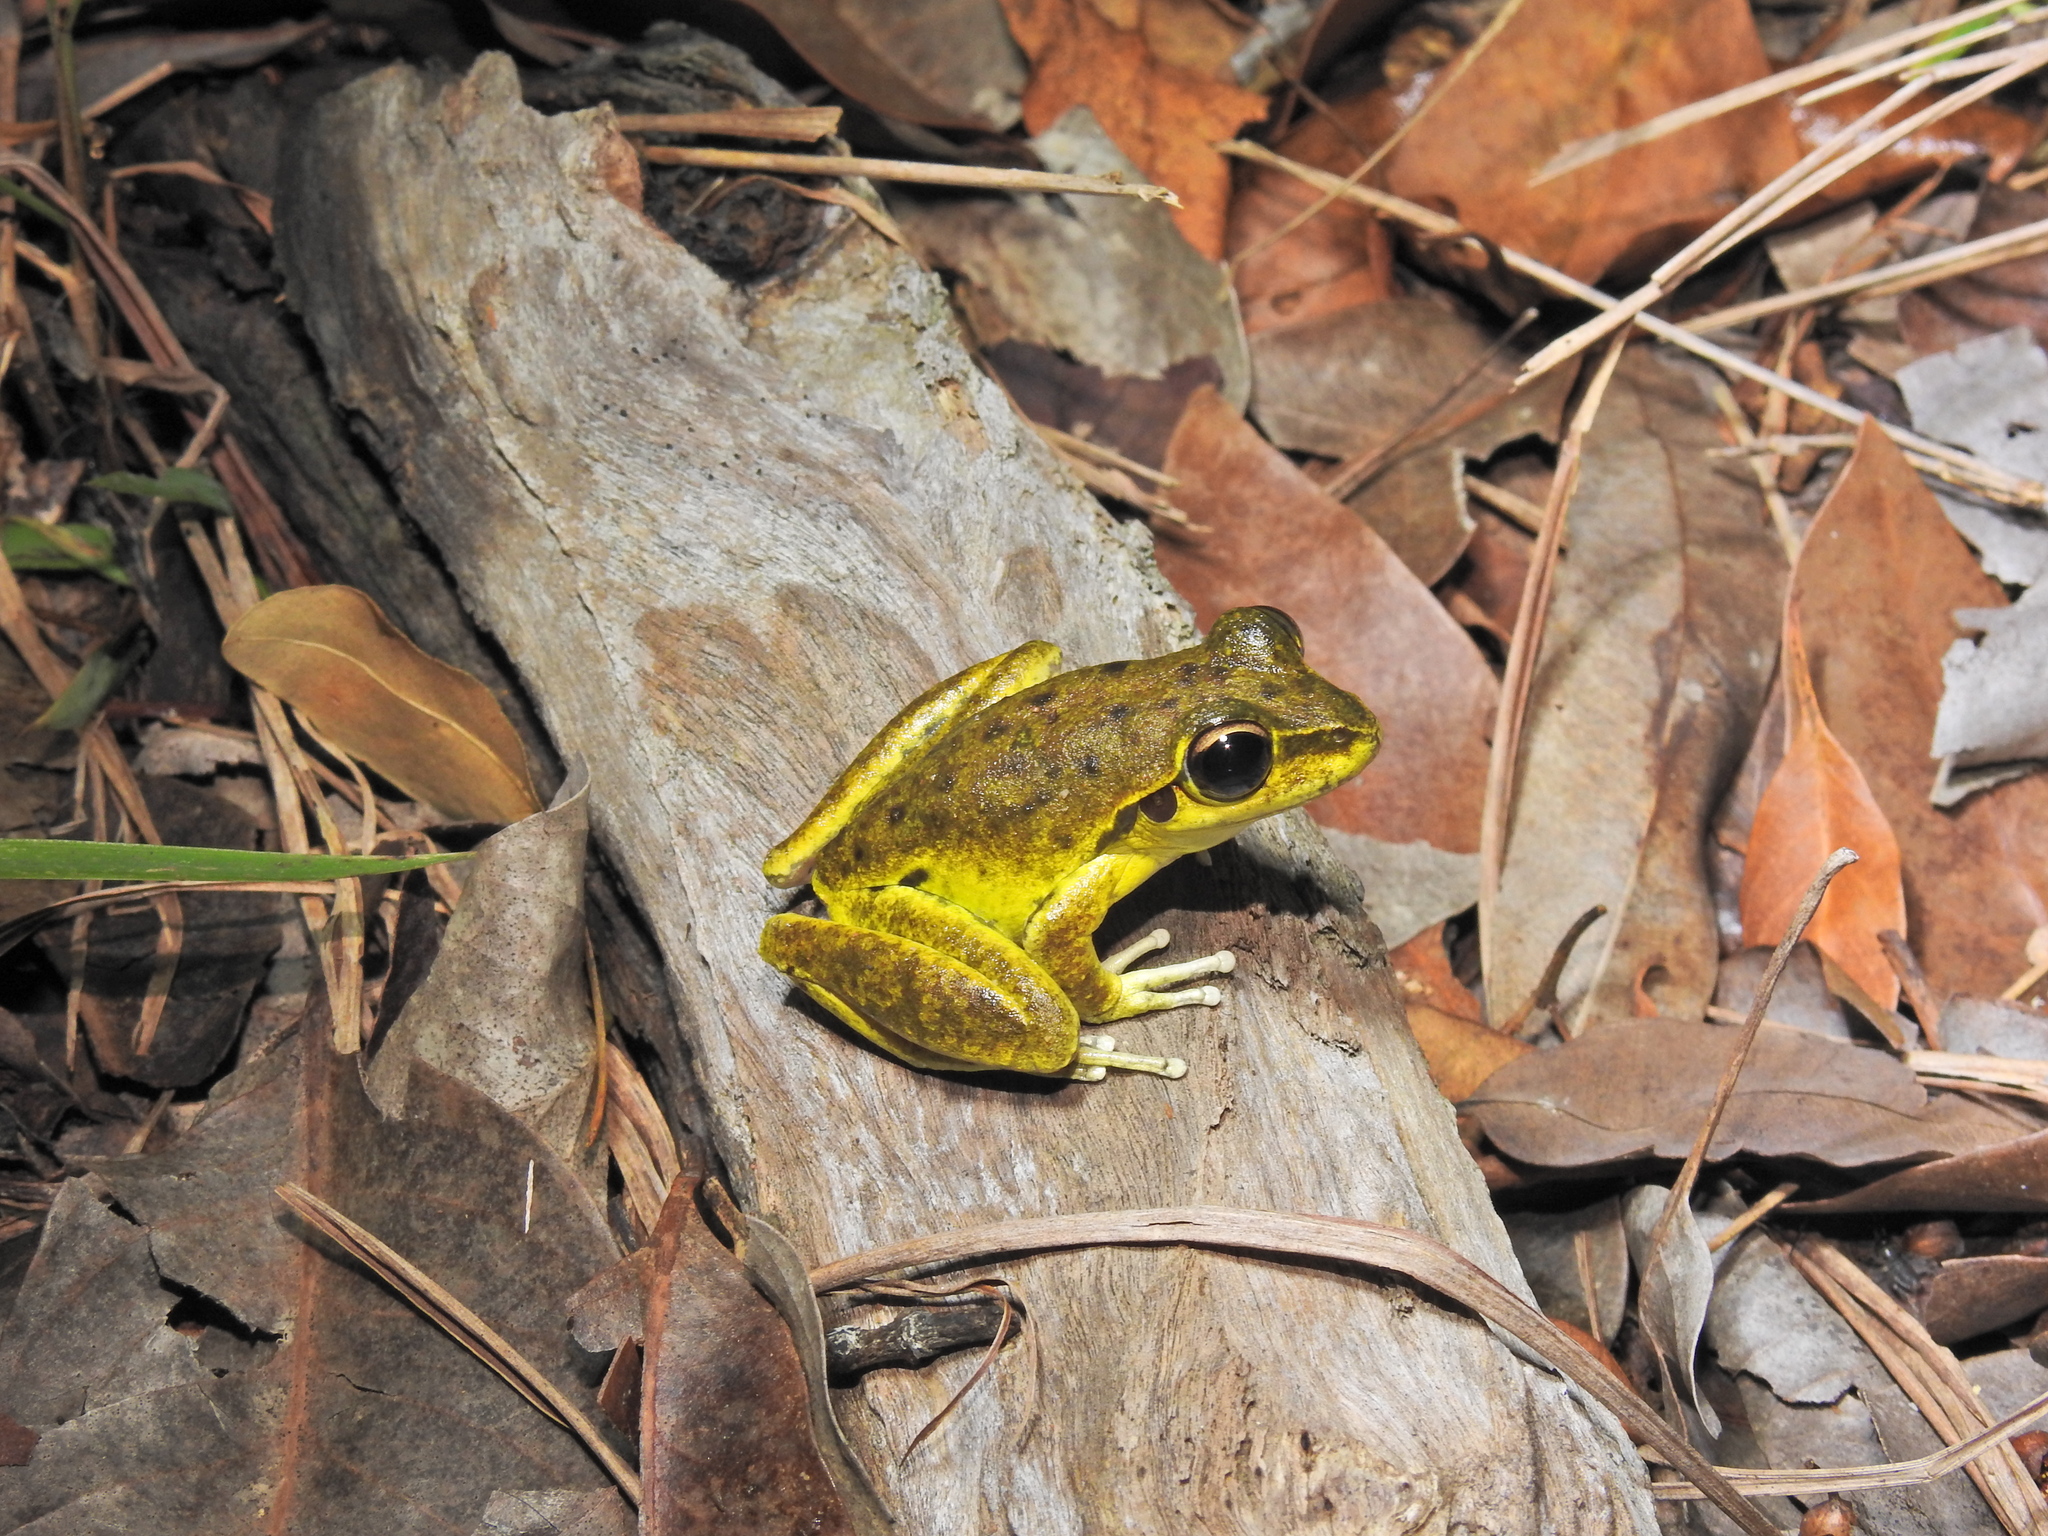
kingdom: Animalia
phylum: Chordata
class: Amphibia
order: Anura
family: Pelodryadidae
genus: Ranoidea
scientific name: Ranoidea wilcoxii
